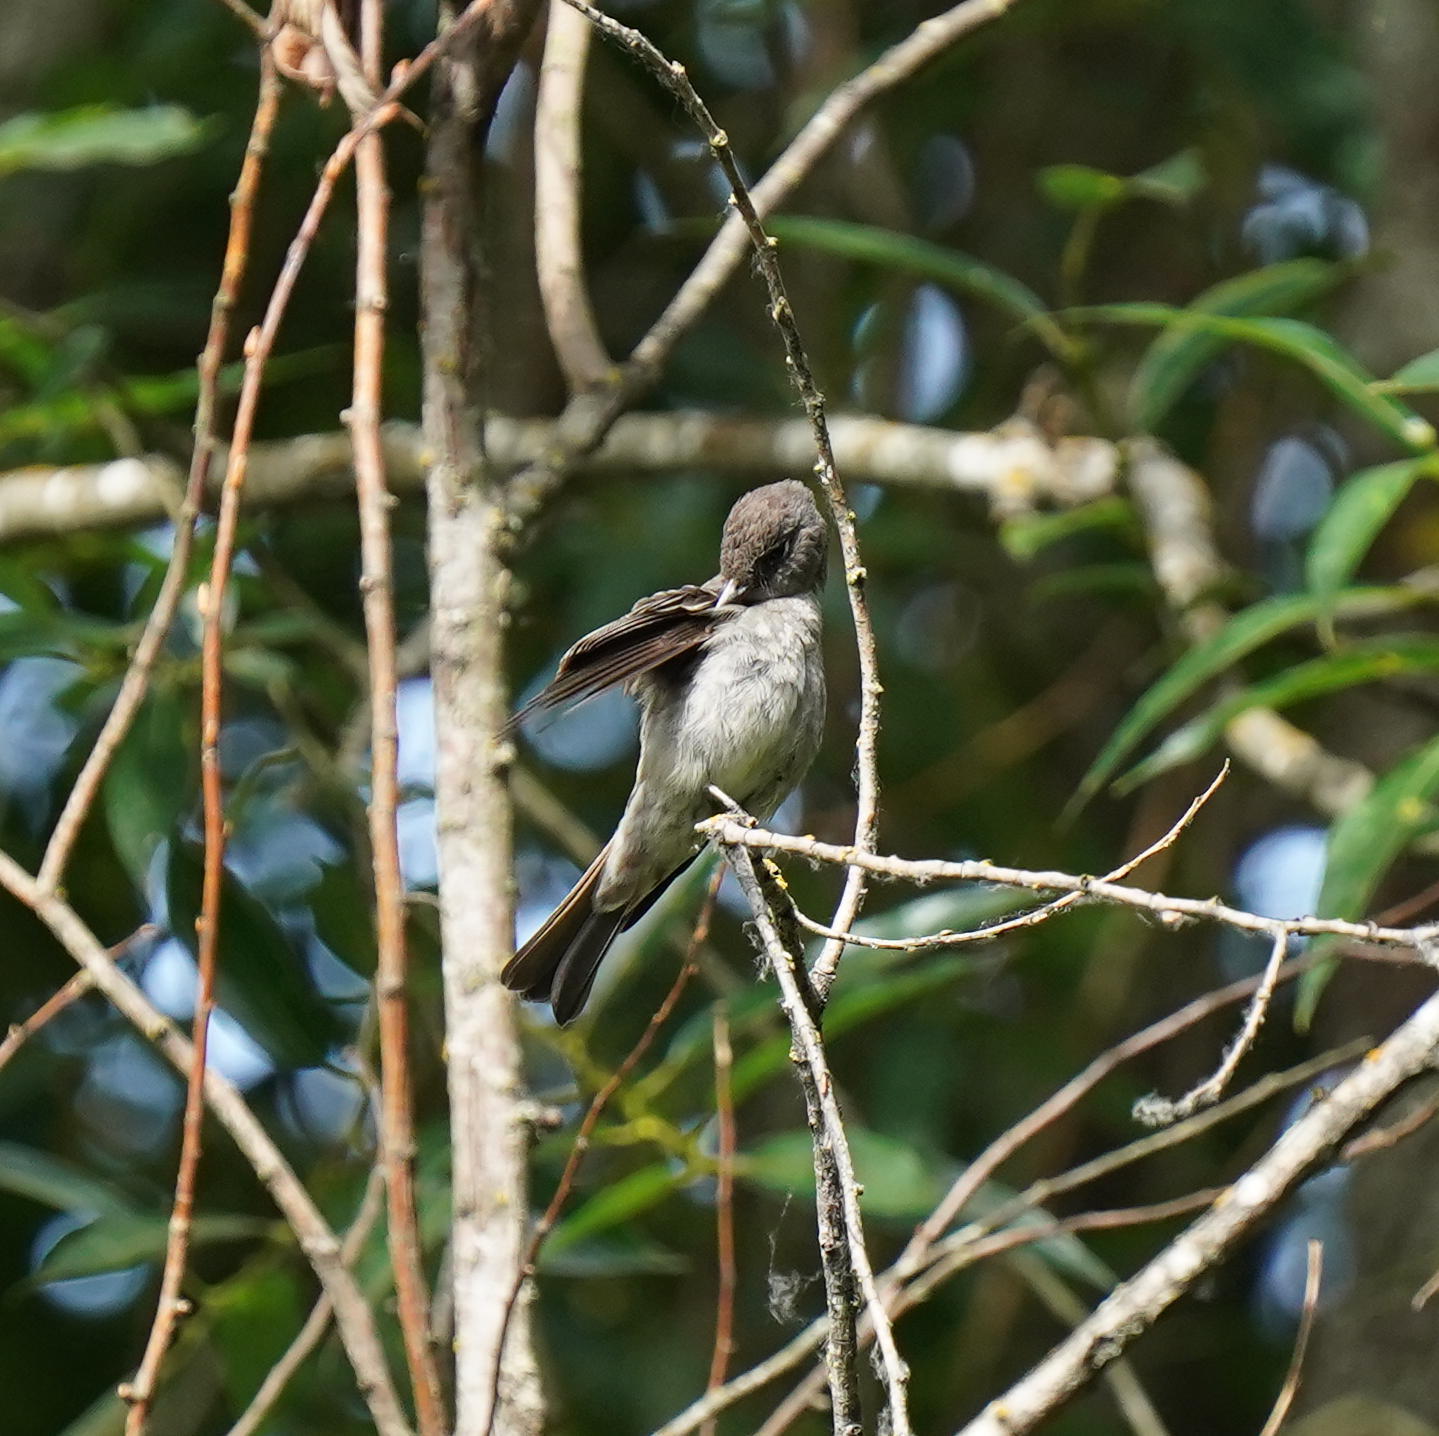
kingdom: Animalia
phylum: Chordata
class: Aves
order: Passeriformes
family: Tyrannidae
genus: Contopus
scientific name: Contopus sordidulus
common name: Western wood-pewee
